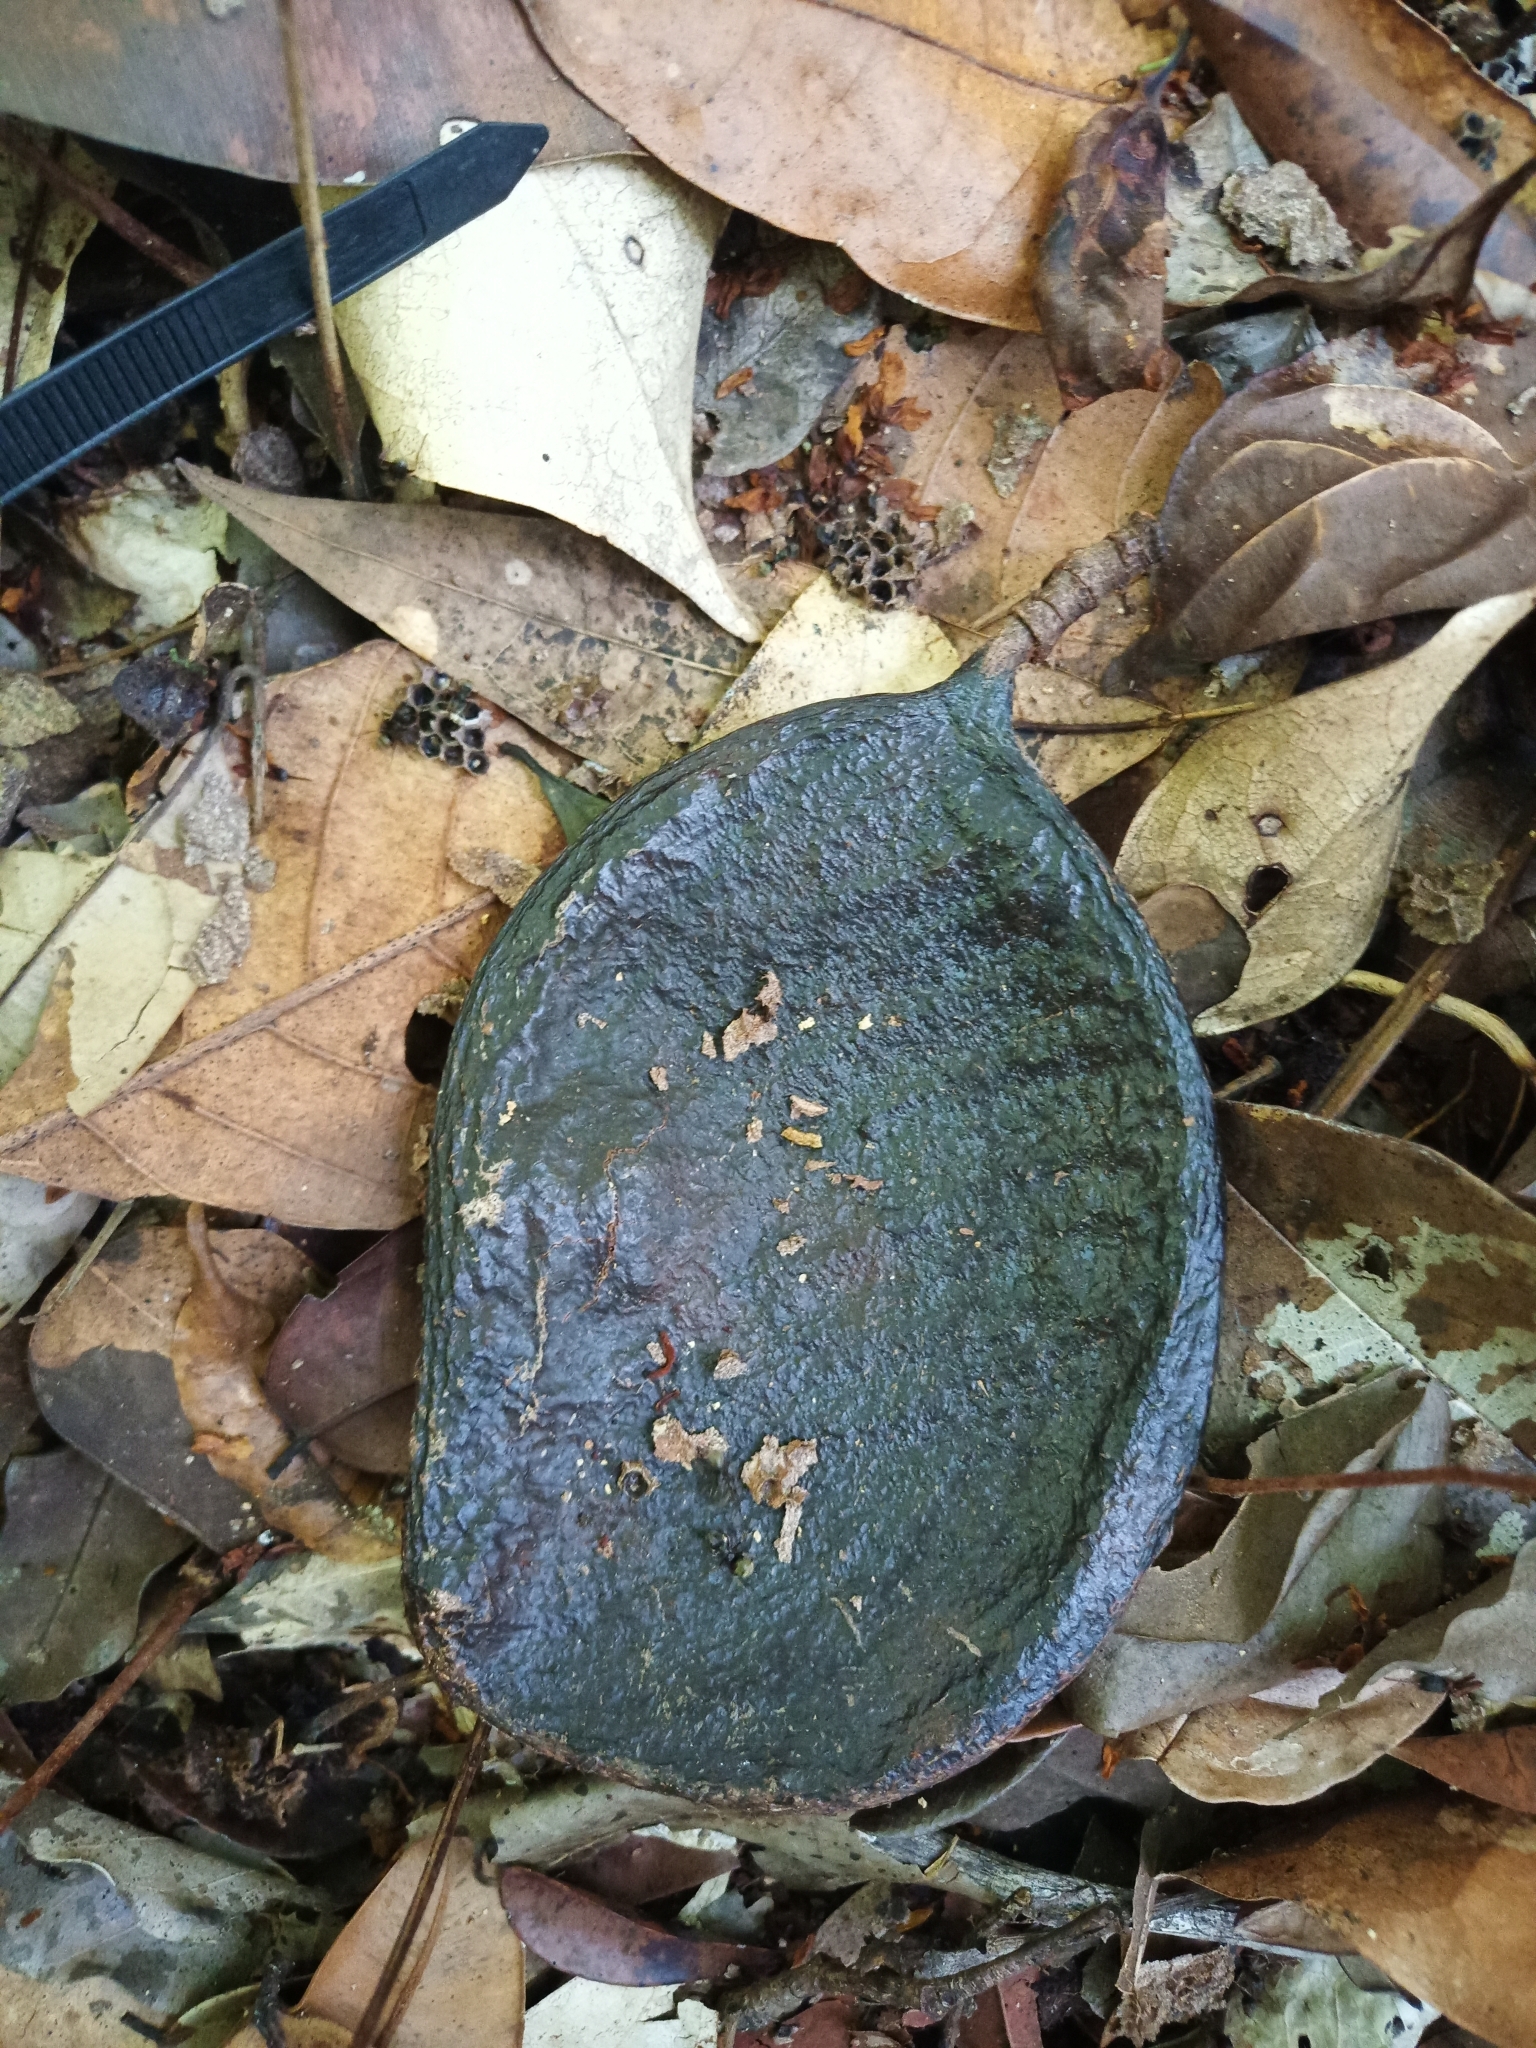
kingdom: Plantae
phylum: Tracheophyta
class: Magnoliopsida
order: Fabales
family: Fabaceae
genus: Eperua
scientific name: Eperua grandiflora
